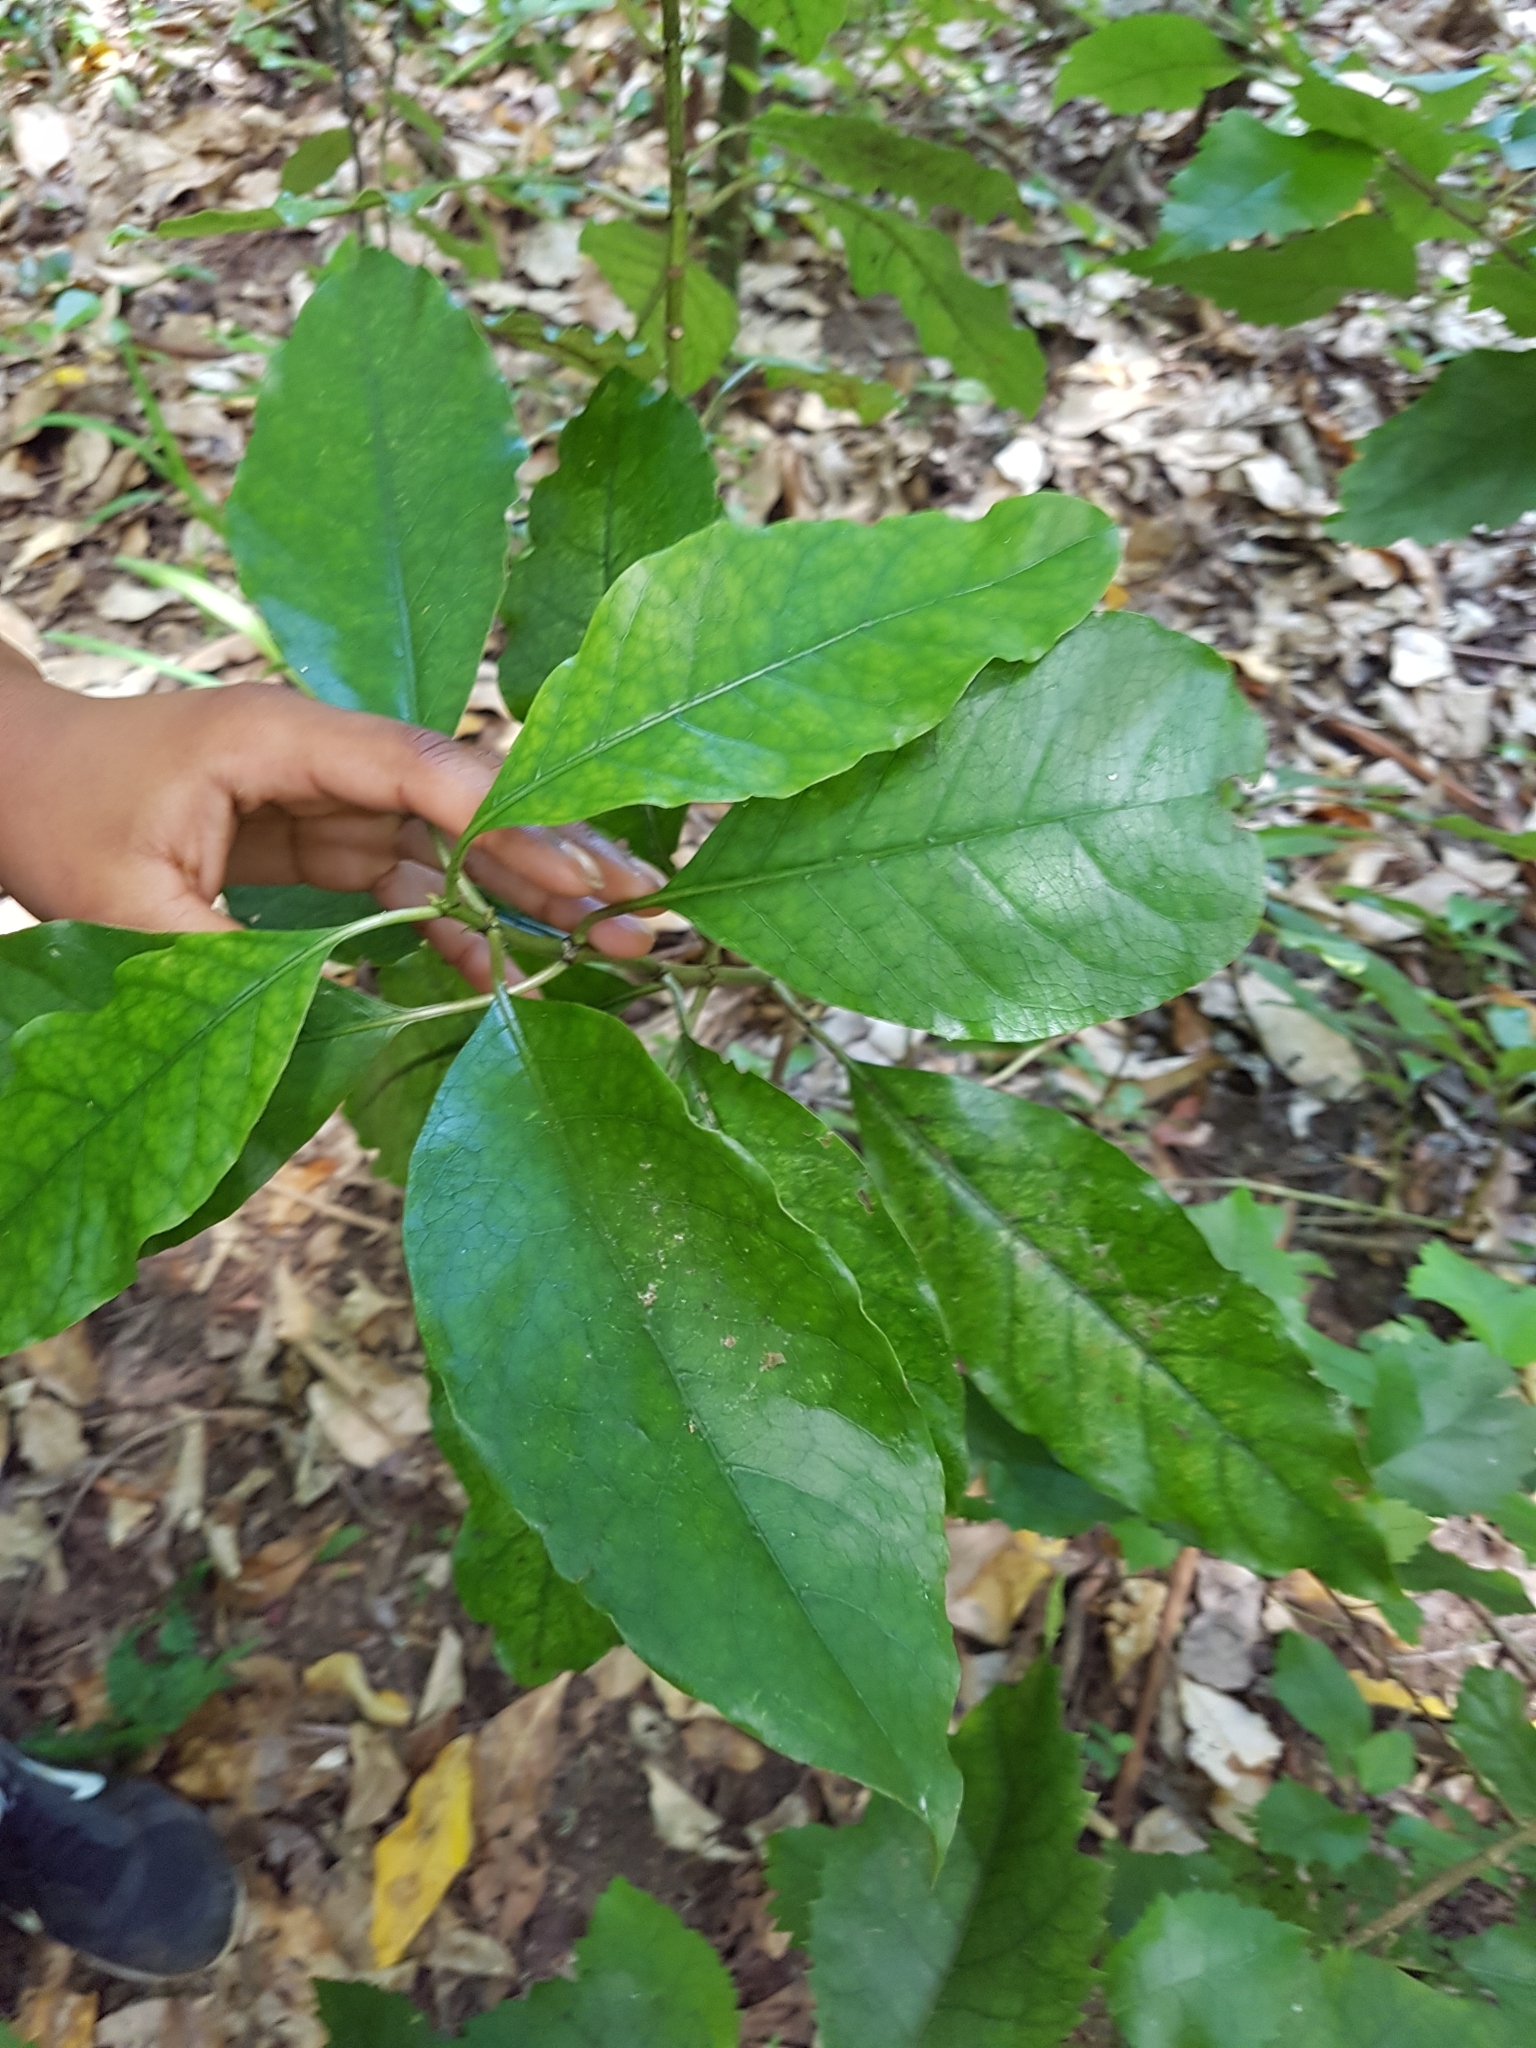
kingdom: Plantae
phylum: Tracheophyta
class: Magnoliopsida
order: Gentianales
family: Rubiaceae
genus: Coprosma
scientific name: Coprosma autumnalis
